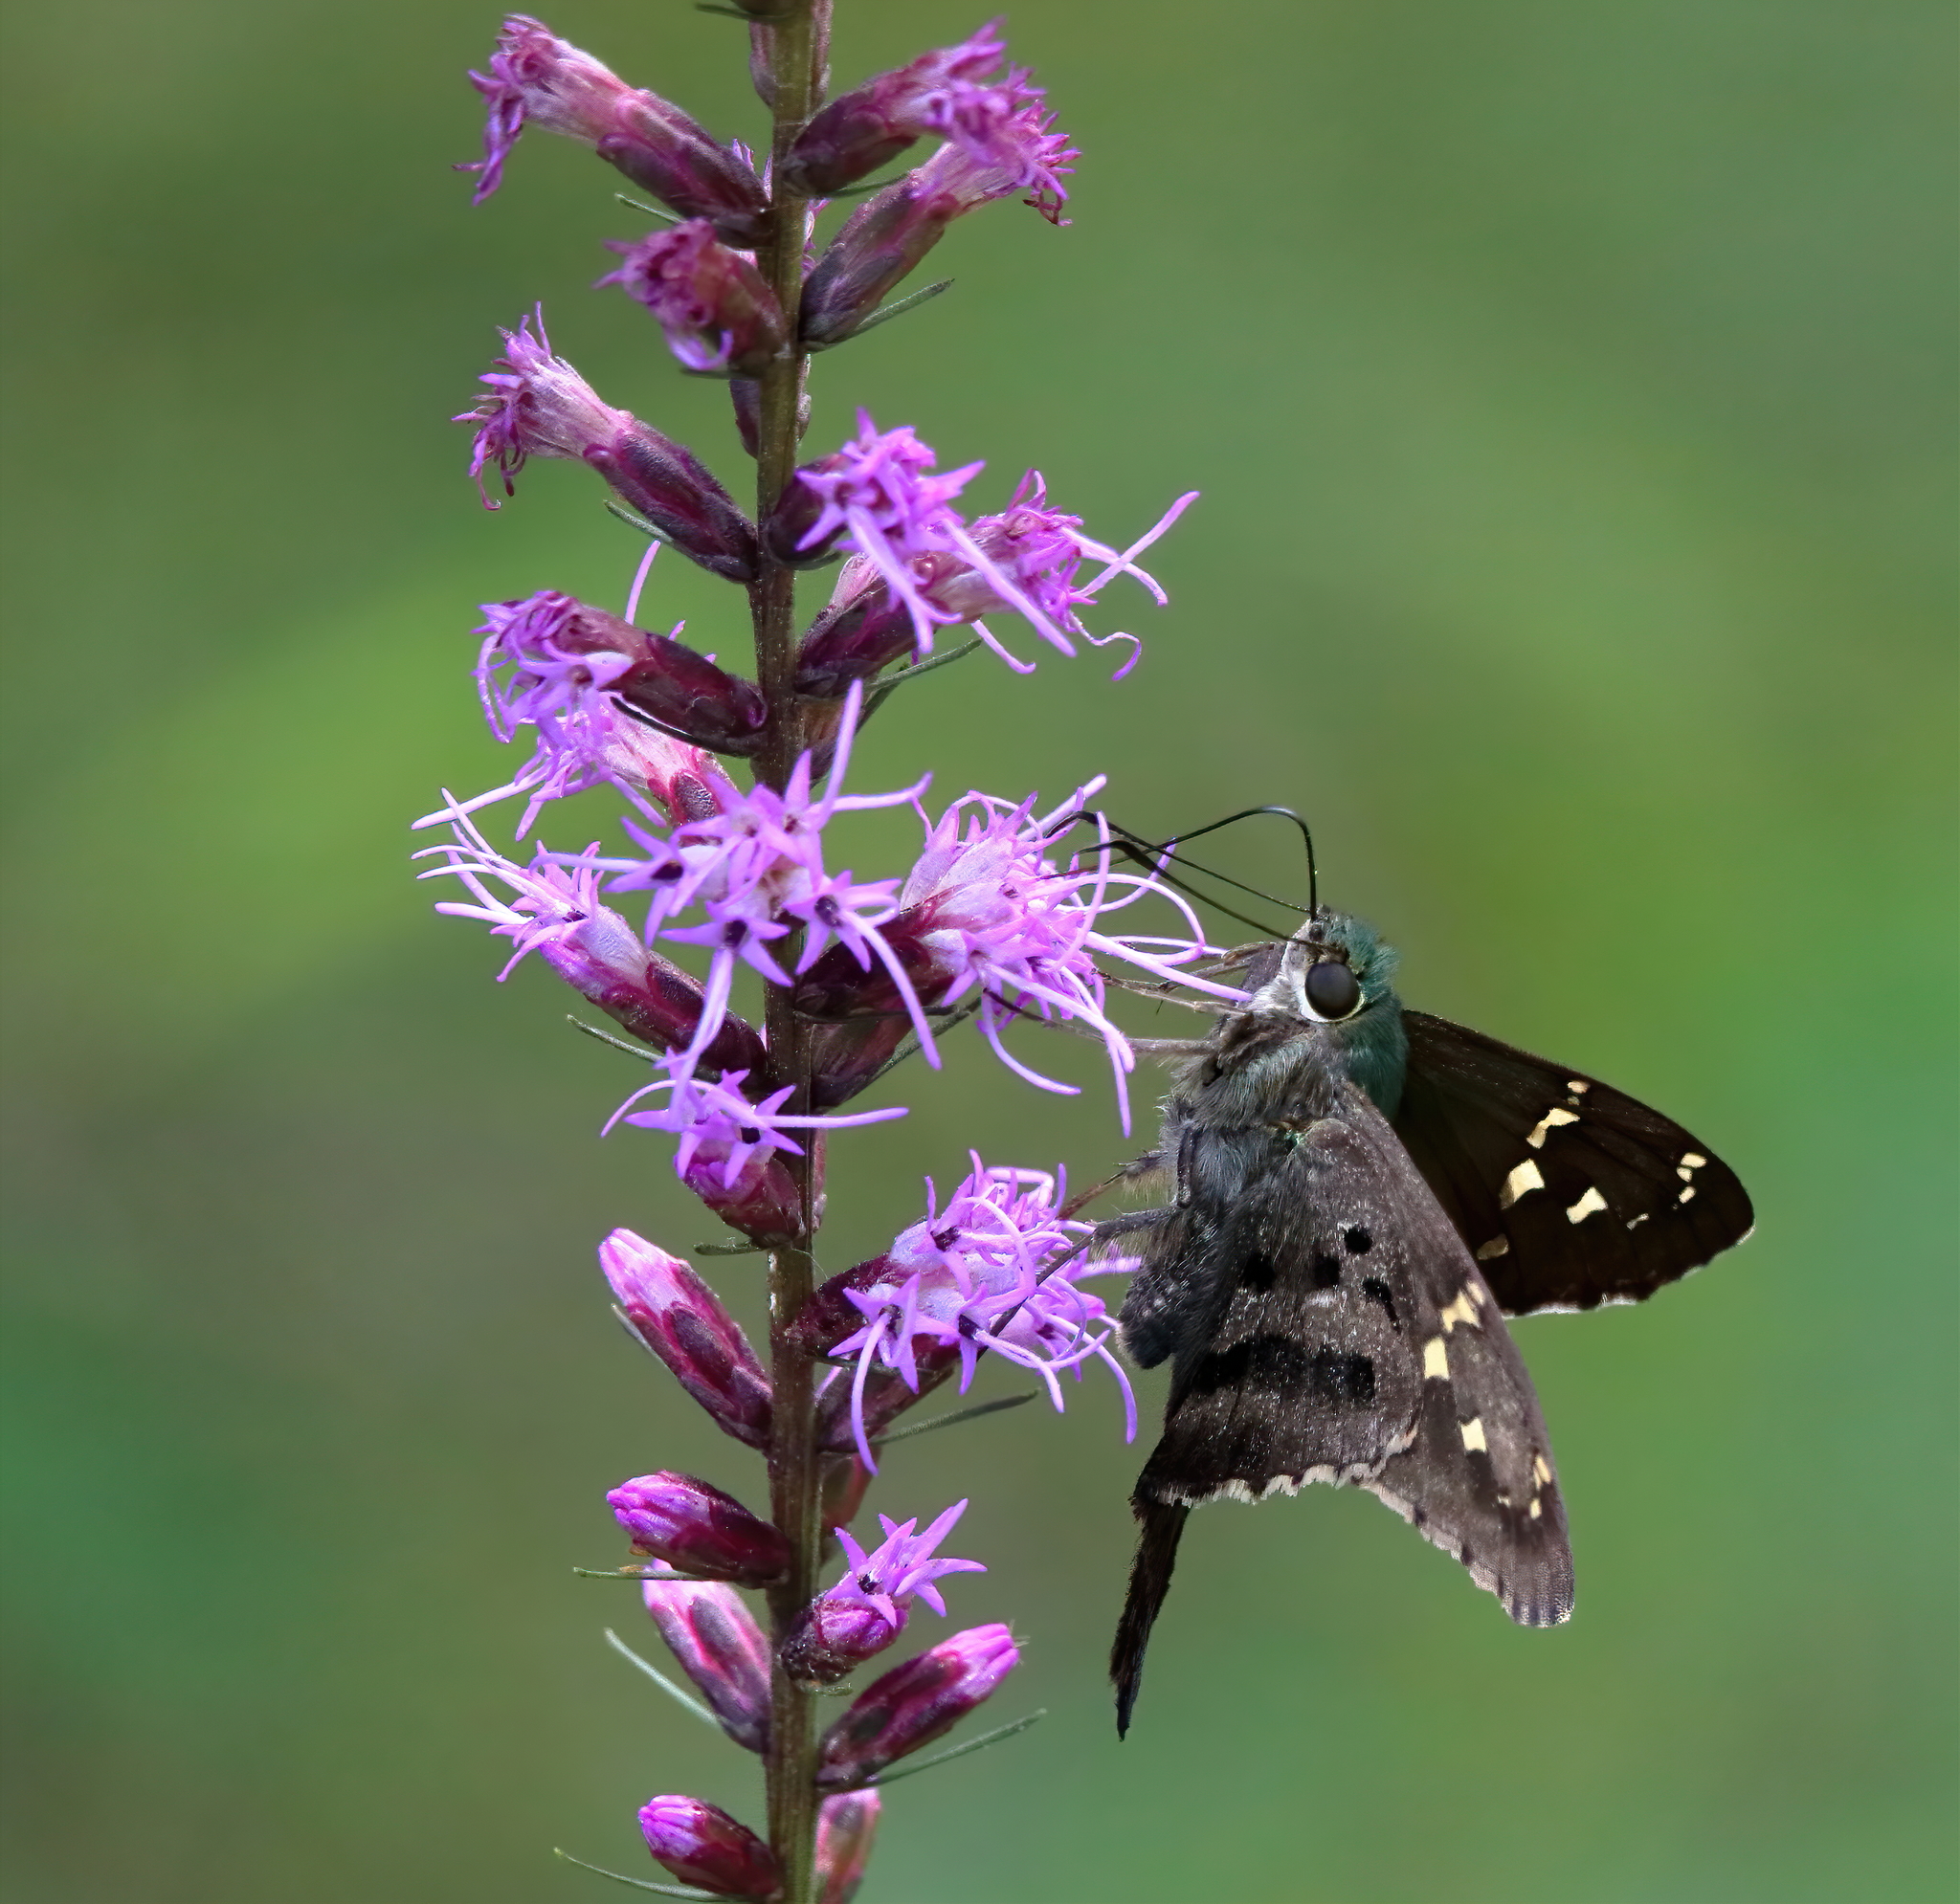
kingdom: Animalia
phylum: Arthropoda
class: Insecta
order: Lepidoptera
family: Hesperiidae
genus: Urbanus
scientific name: Urbanus proteus
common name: Long-tailed skipper
